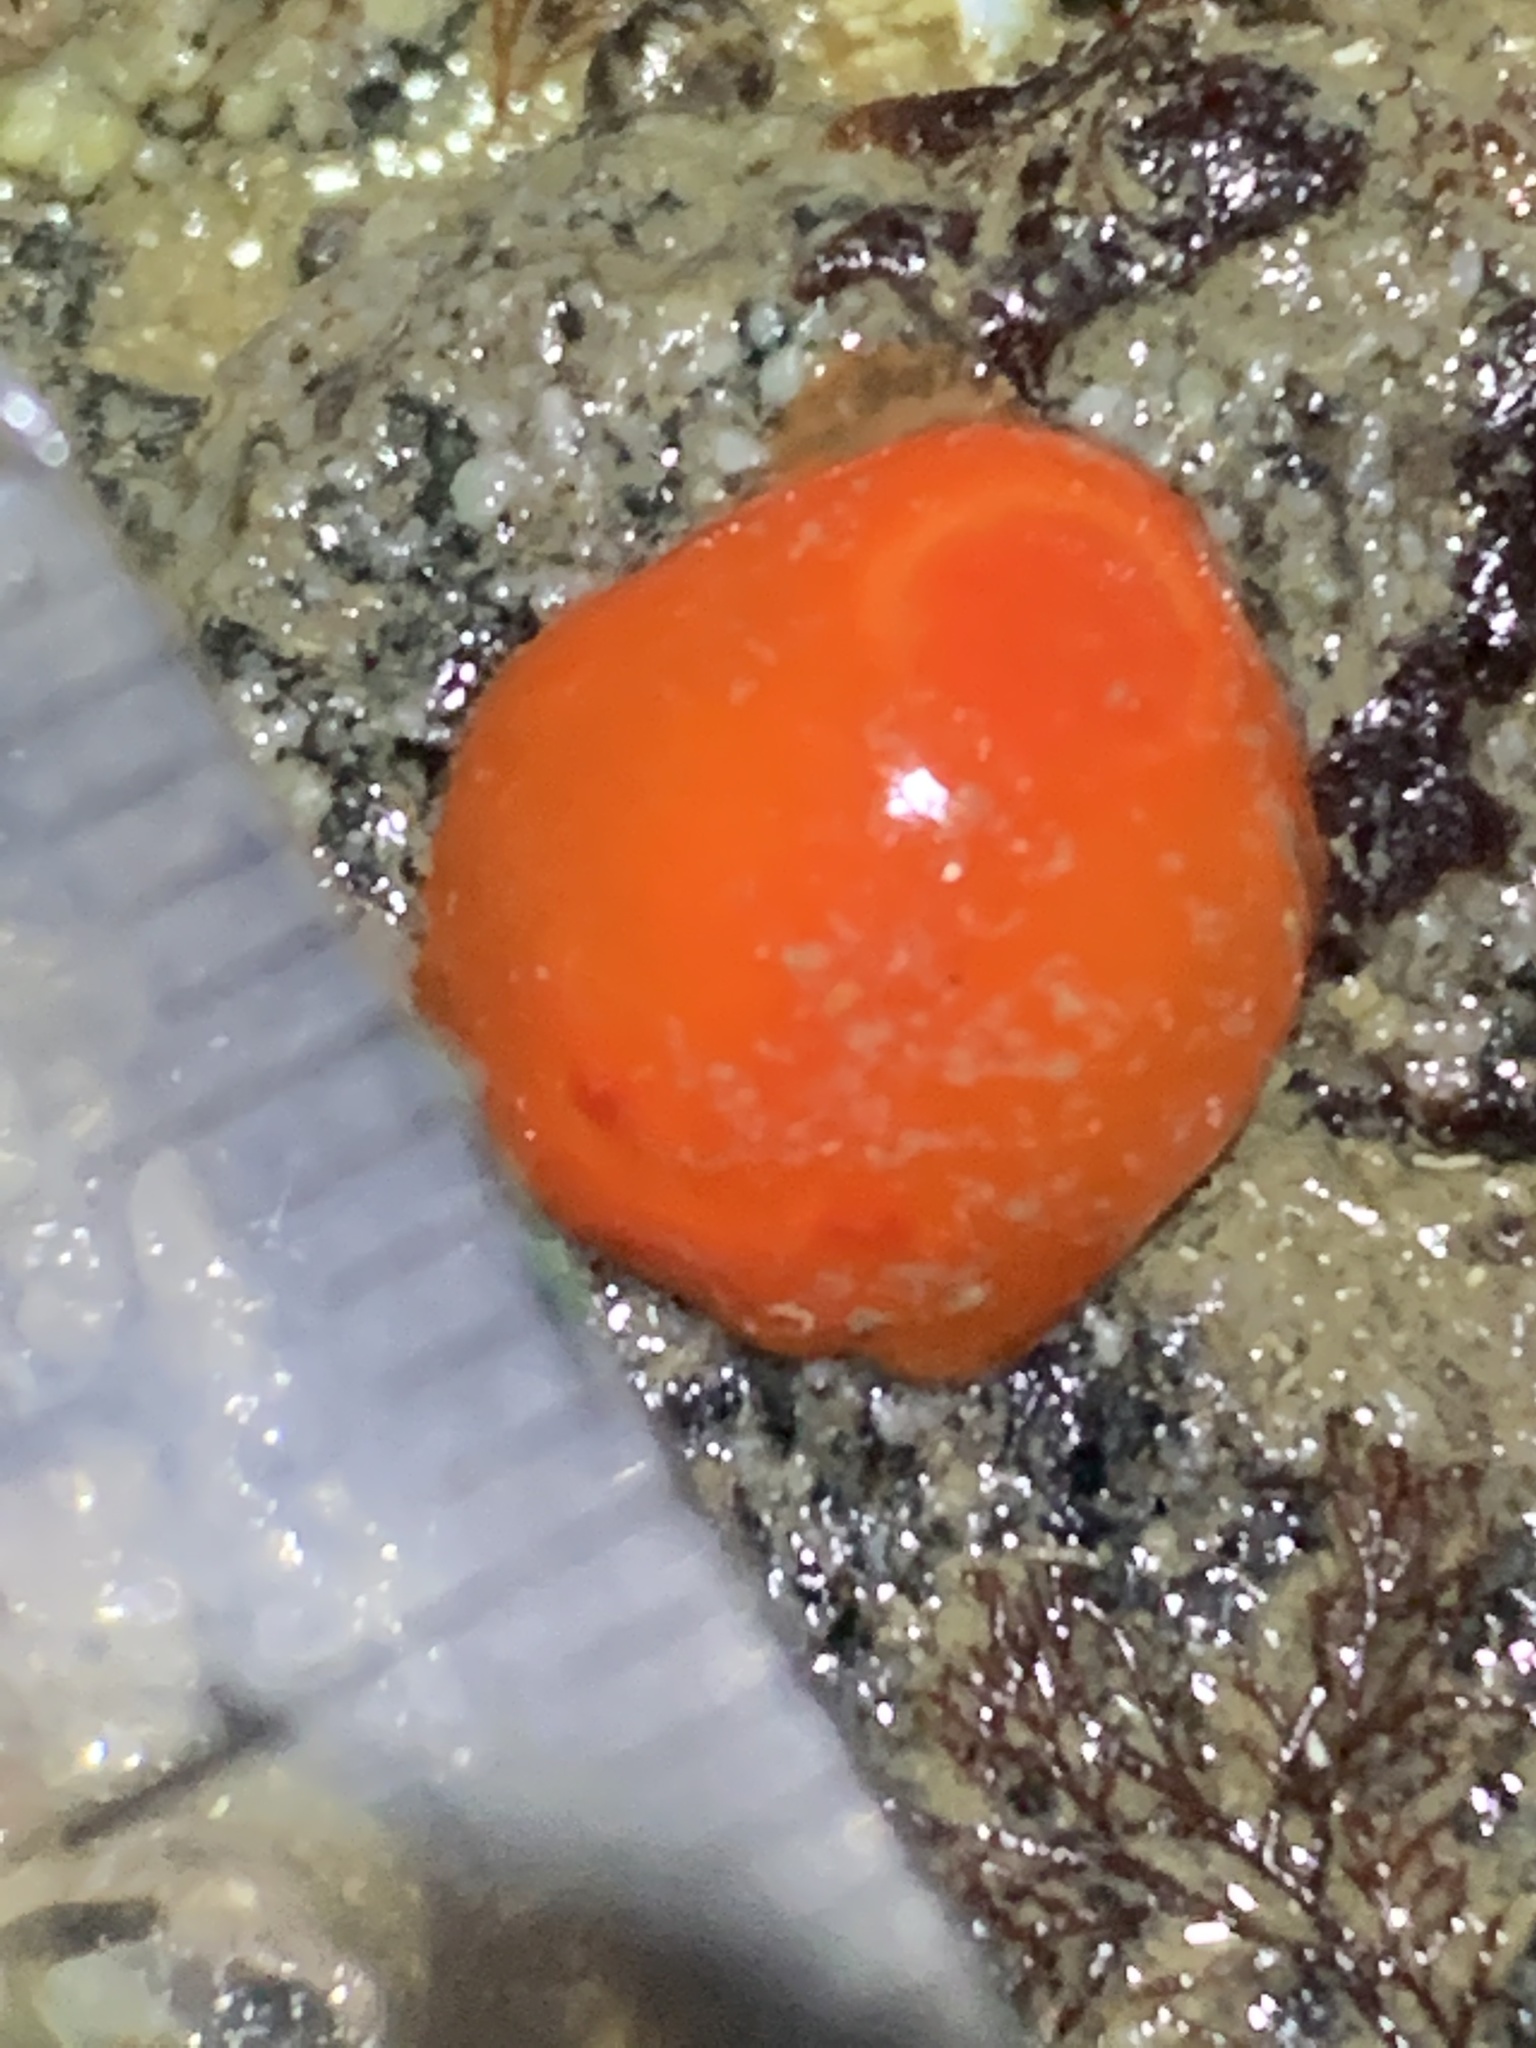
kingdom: Animalia
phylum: Mollusca
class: Gastropoda
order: Nudibranchia
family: Discodorididae
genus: Rostanga
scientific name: Rostanga pulchra
